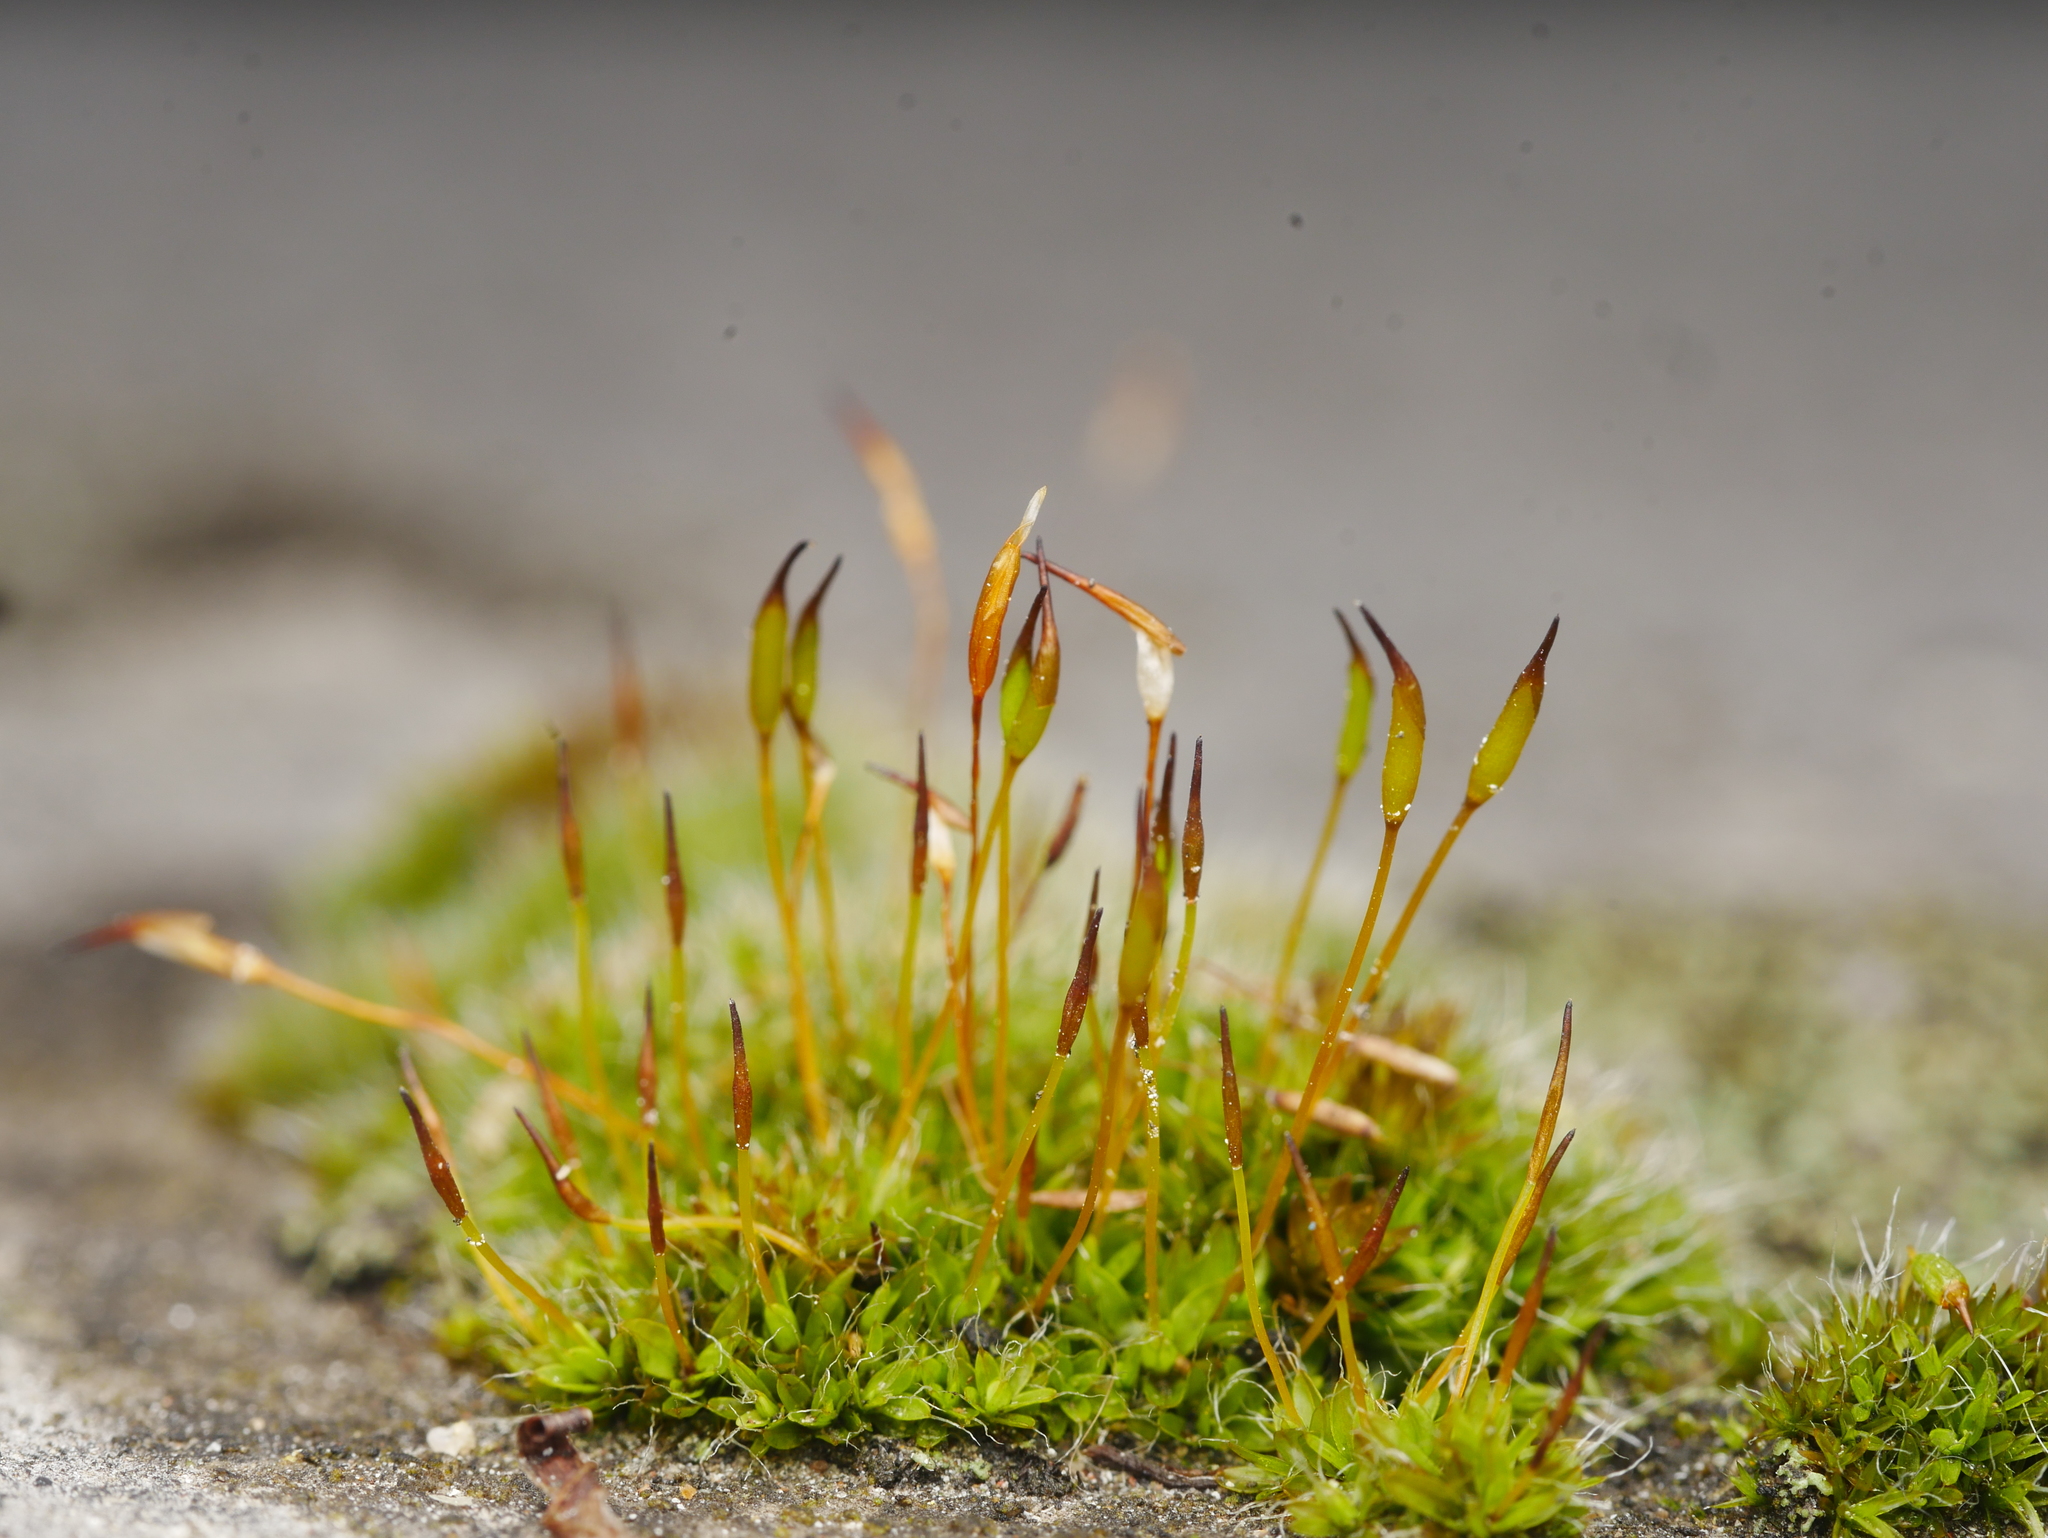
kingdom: Plantae
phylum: Bryophyta
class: Bryopsida
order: Pottiales
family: Pottiaceae
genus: Tortula
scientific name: Tortula muralis
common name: Wall screw-moss
